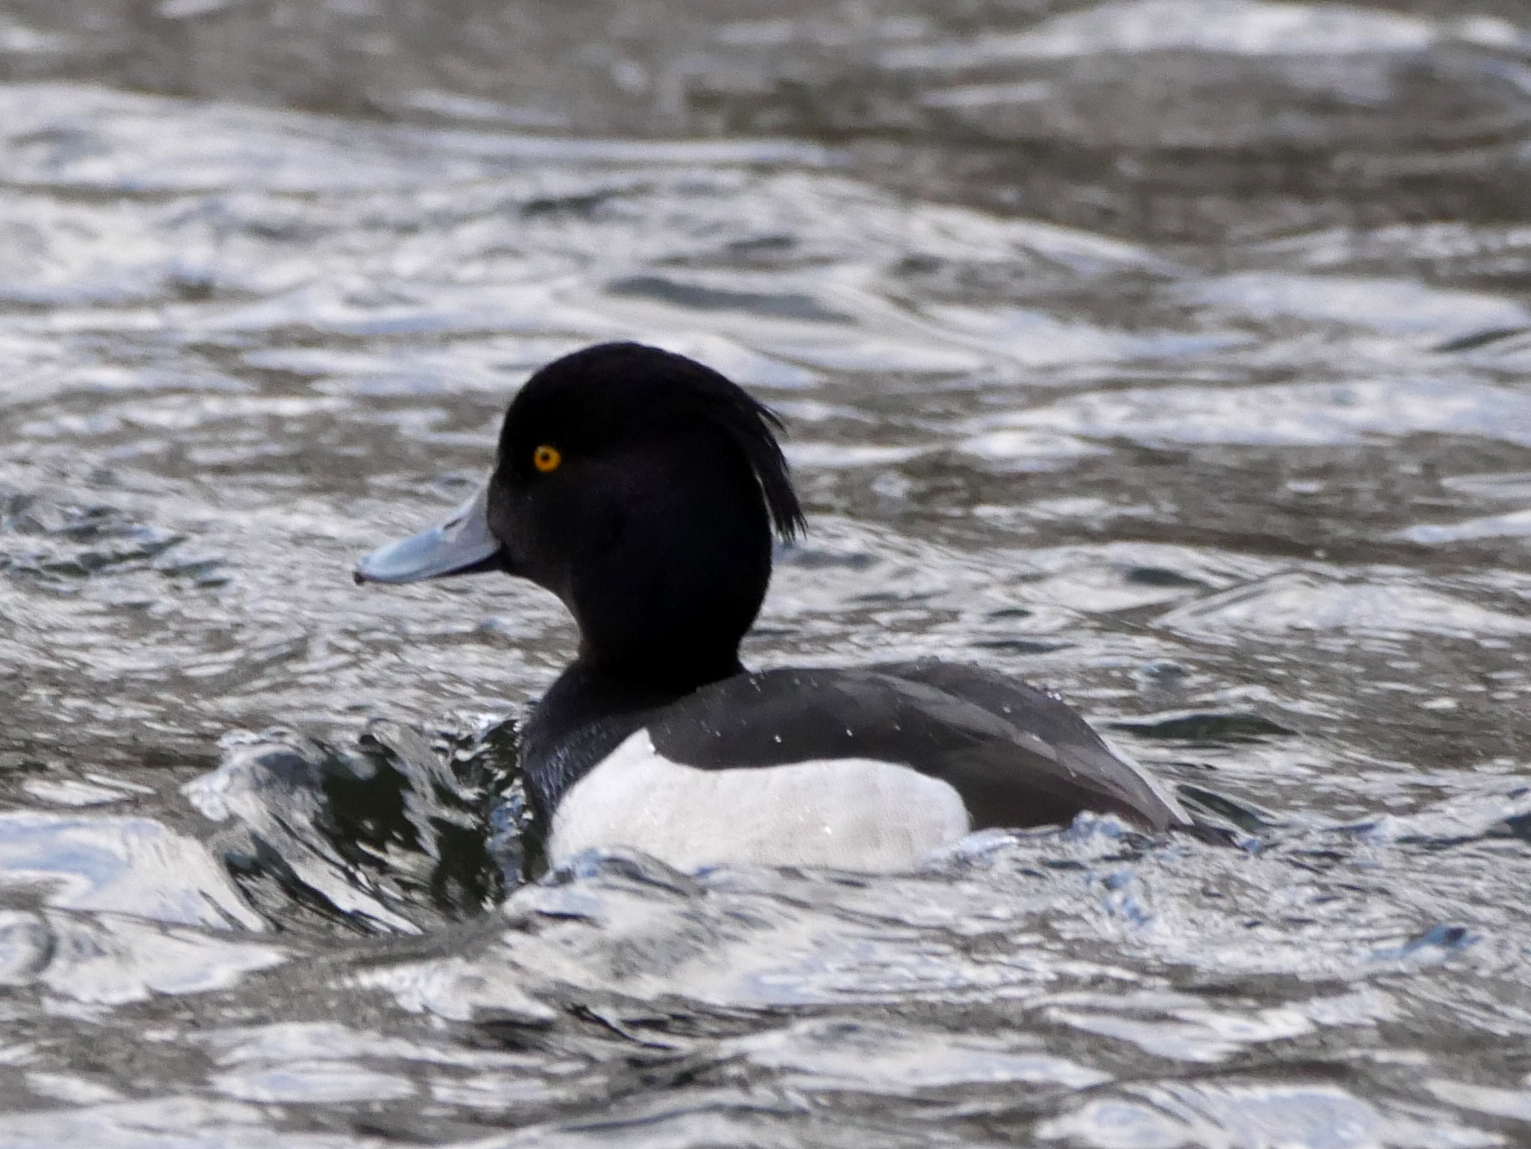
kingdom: Animalia
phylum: Chordata
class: Aves
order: Anseriformes
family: Anatidae
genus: Aythya
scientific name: Aythya fuligula
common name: Tufted duck
